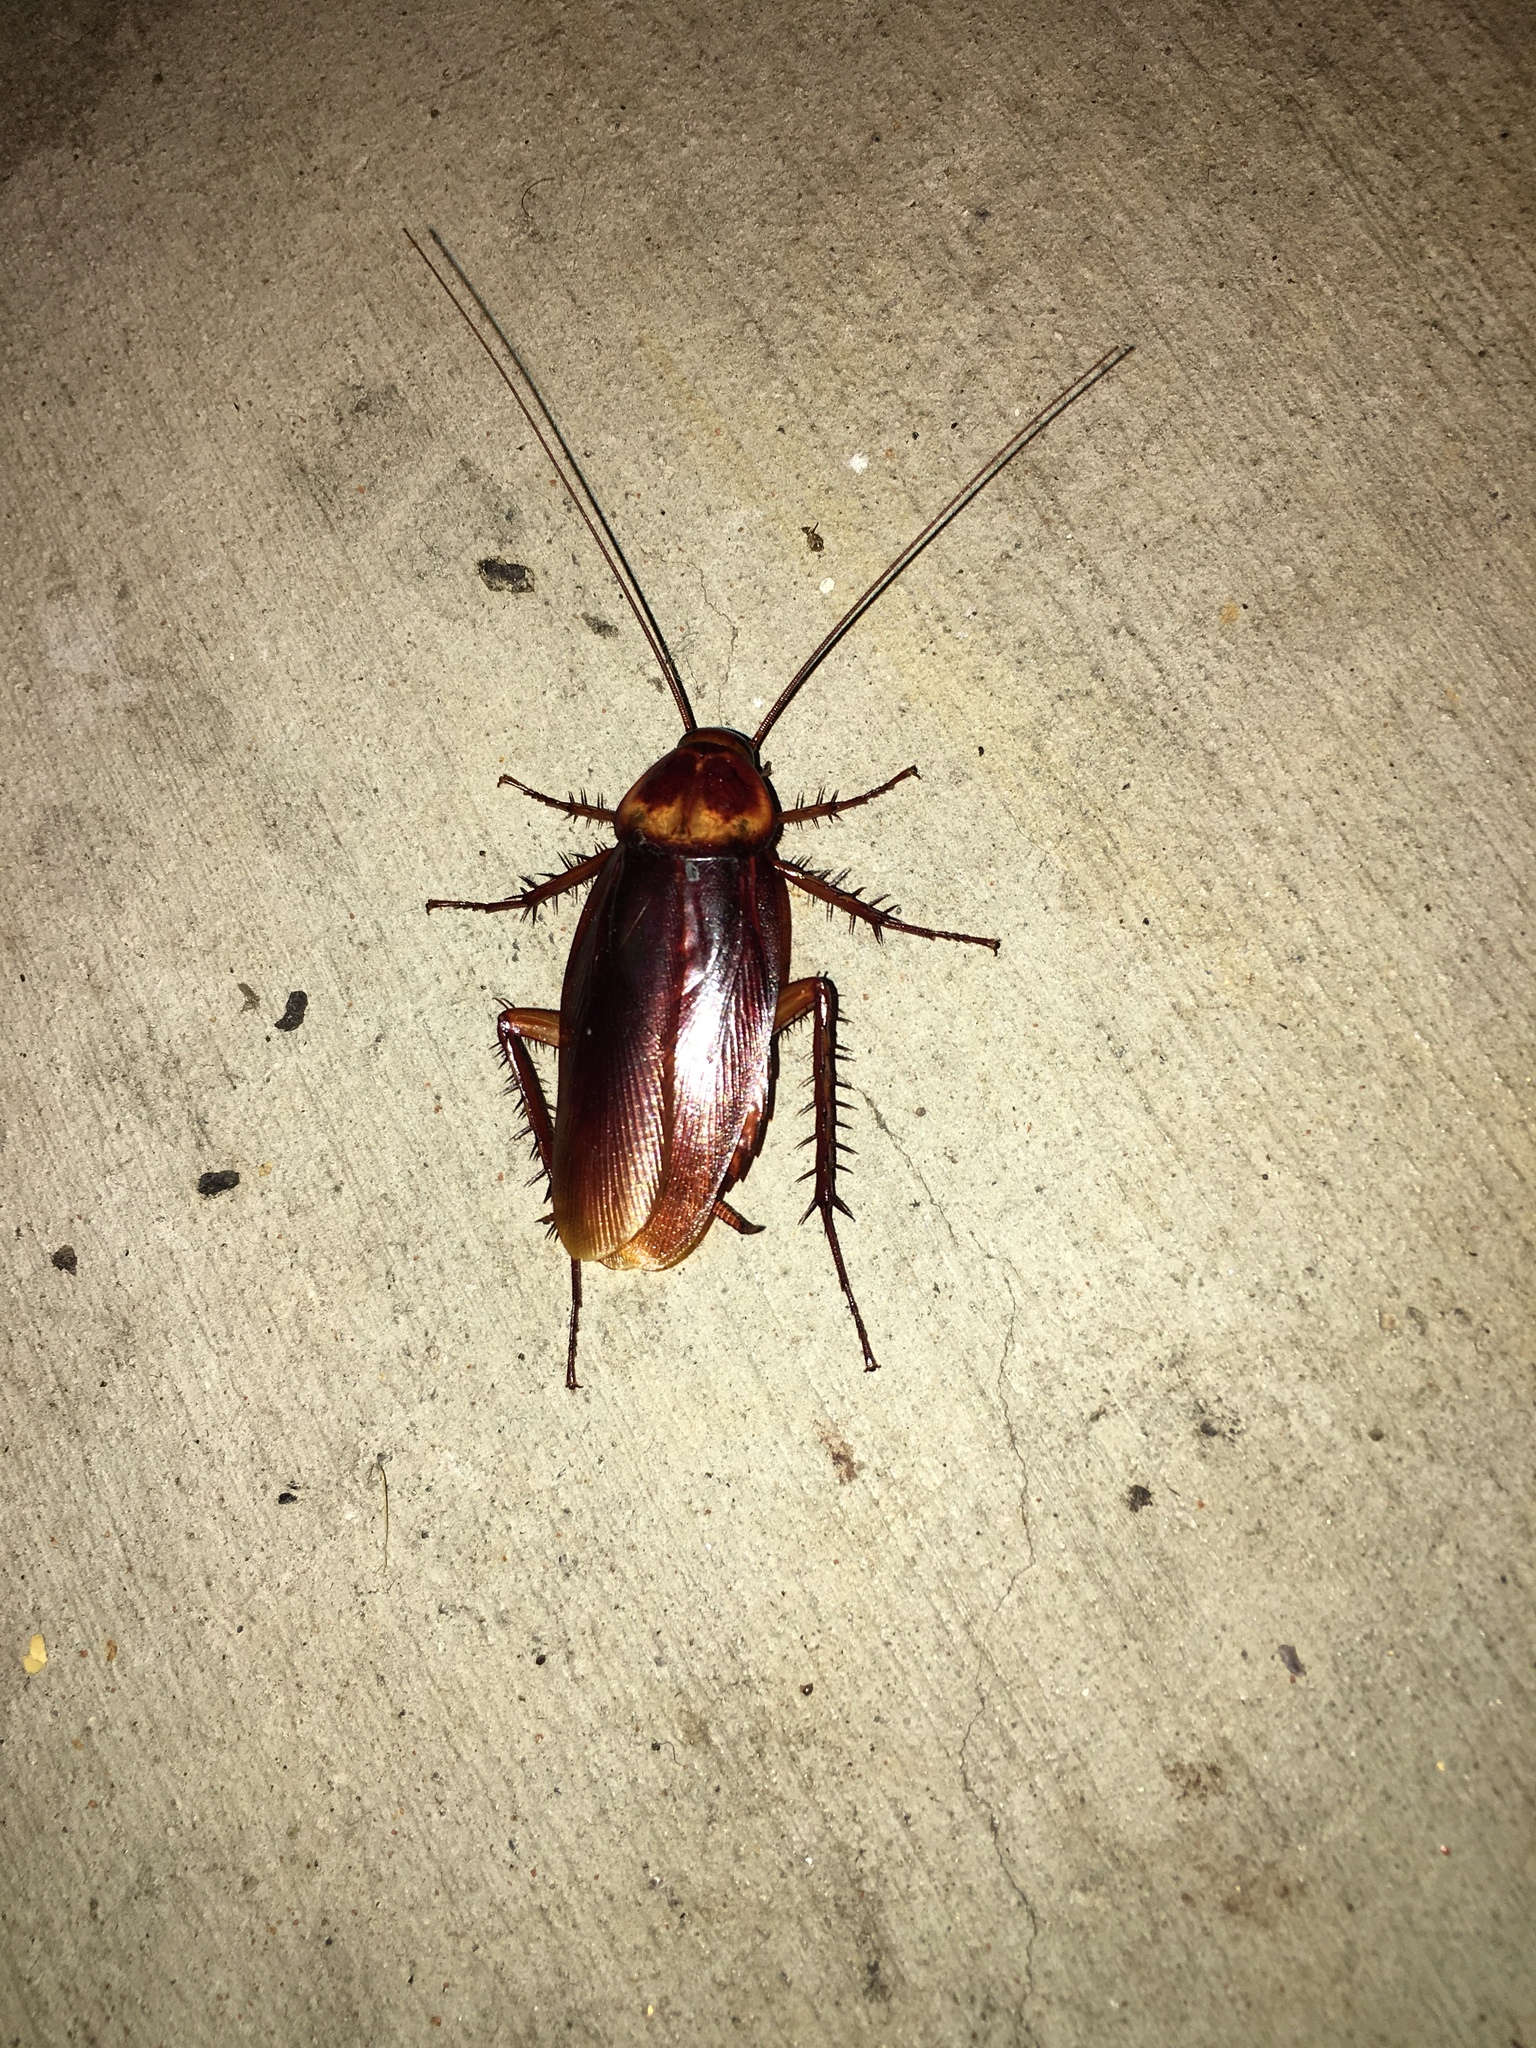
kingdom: Animalia
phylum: Arthropoda
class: Insecta
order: Blattodea
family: Blattidae
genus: Periplaneta
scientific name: Periplaneta americana
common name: American cockroach
